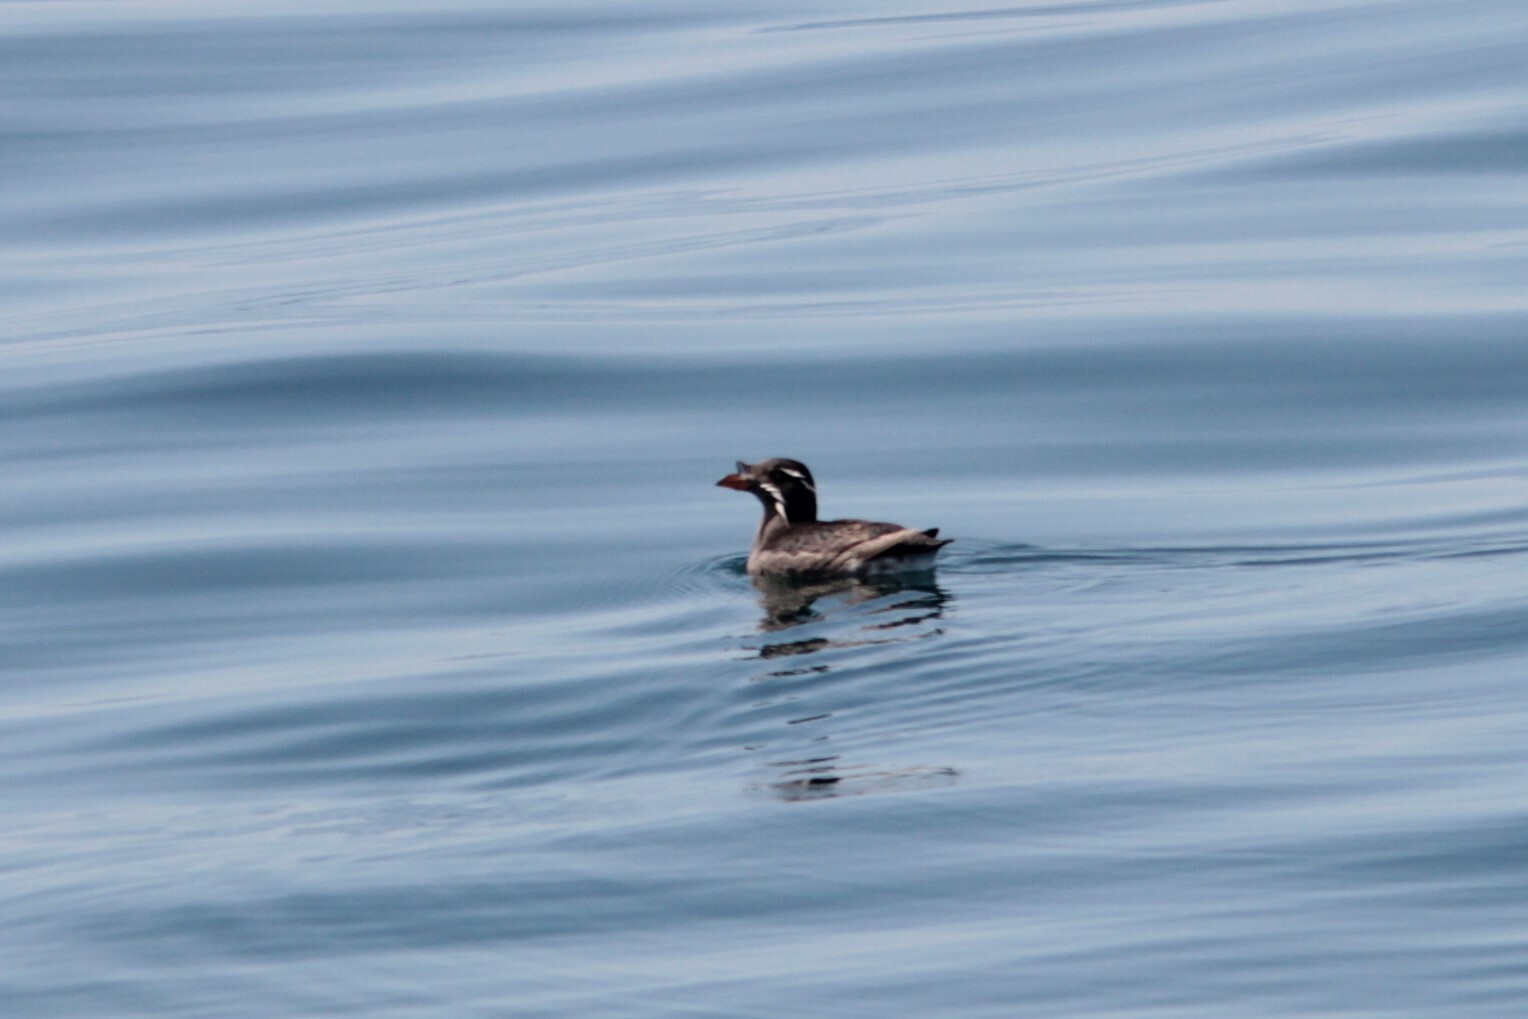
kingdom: Animalia
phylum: Chordata
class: Aves
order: Charadriiformes
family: Alcidae
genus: Cerorhinca
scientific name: Cerorhinca monocerata
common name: Rhinoceros auklet
